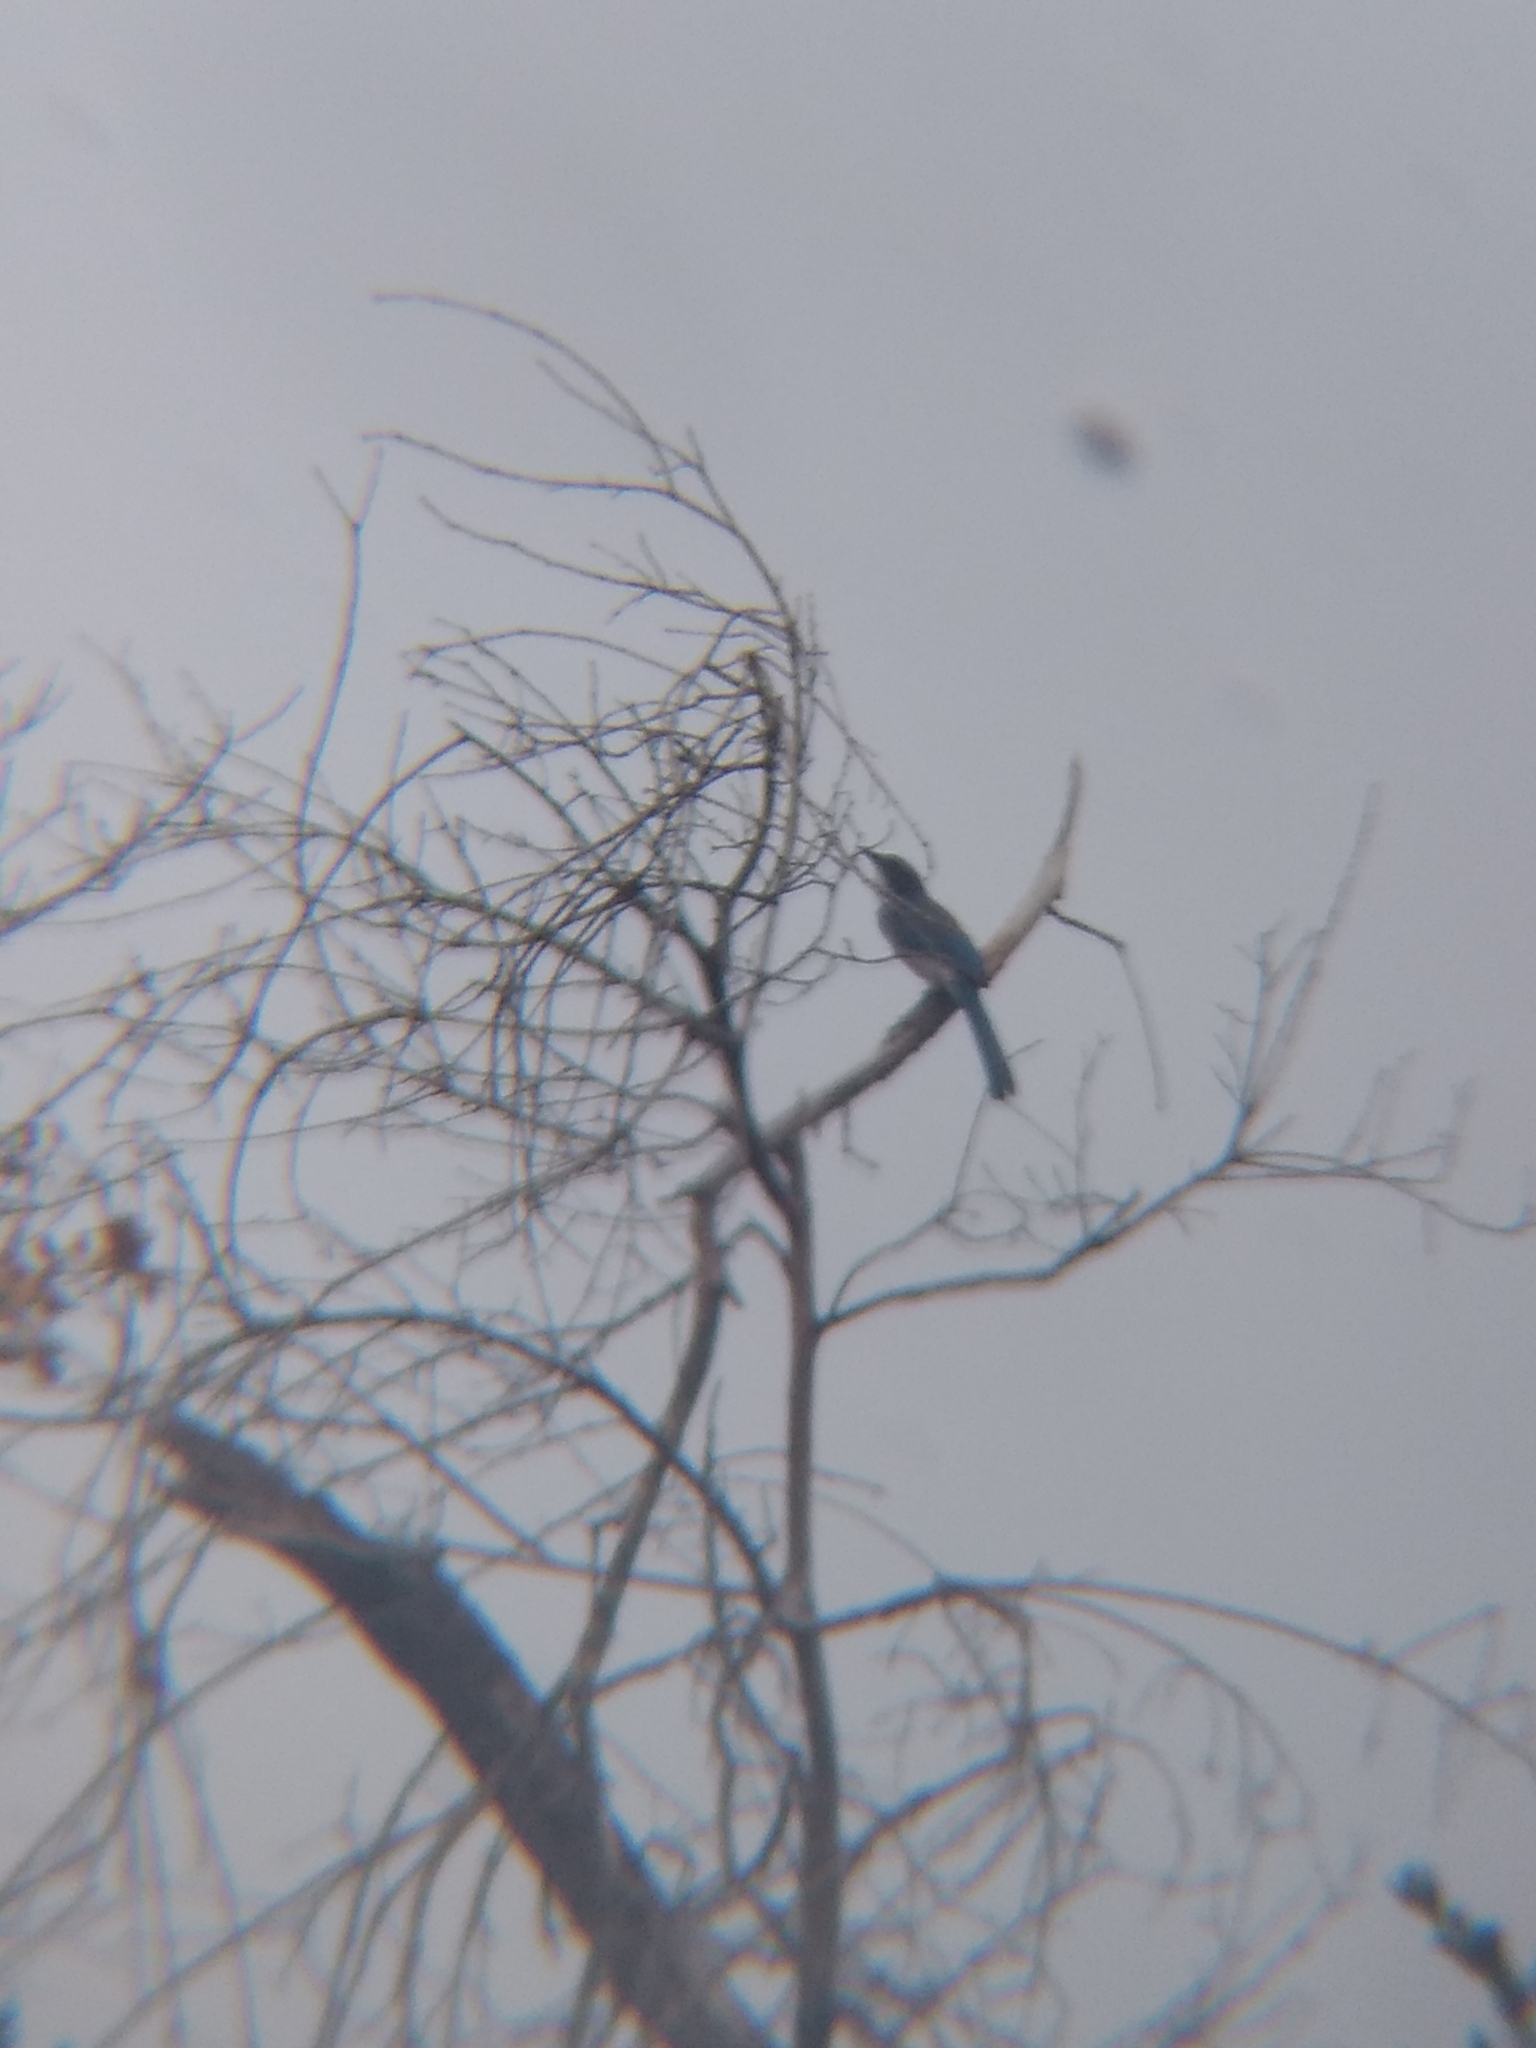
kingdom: Animalia
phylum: Chordata
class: Aves
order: Passeriformes
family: Corvidae
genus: Aphelocoma
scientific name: Aphelocoma californica
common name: California scrub-jay
